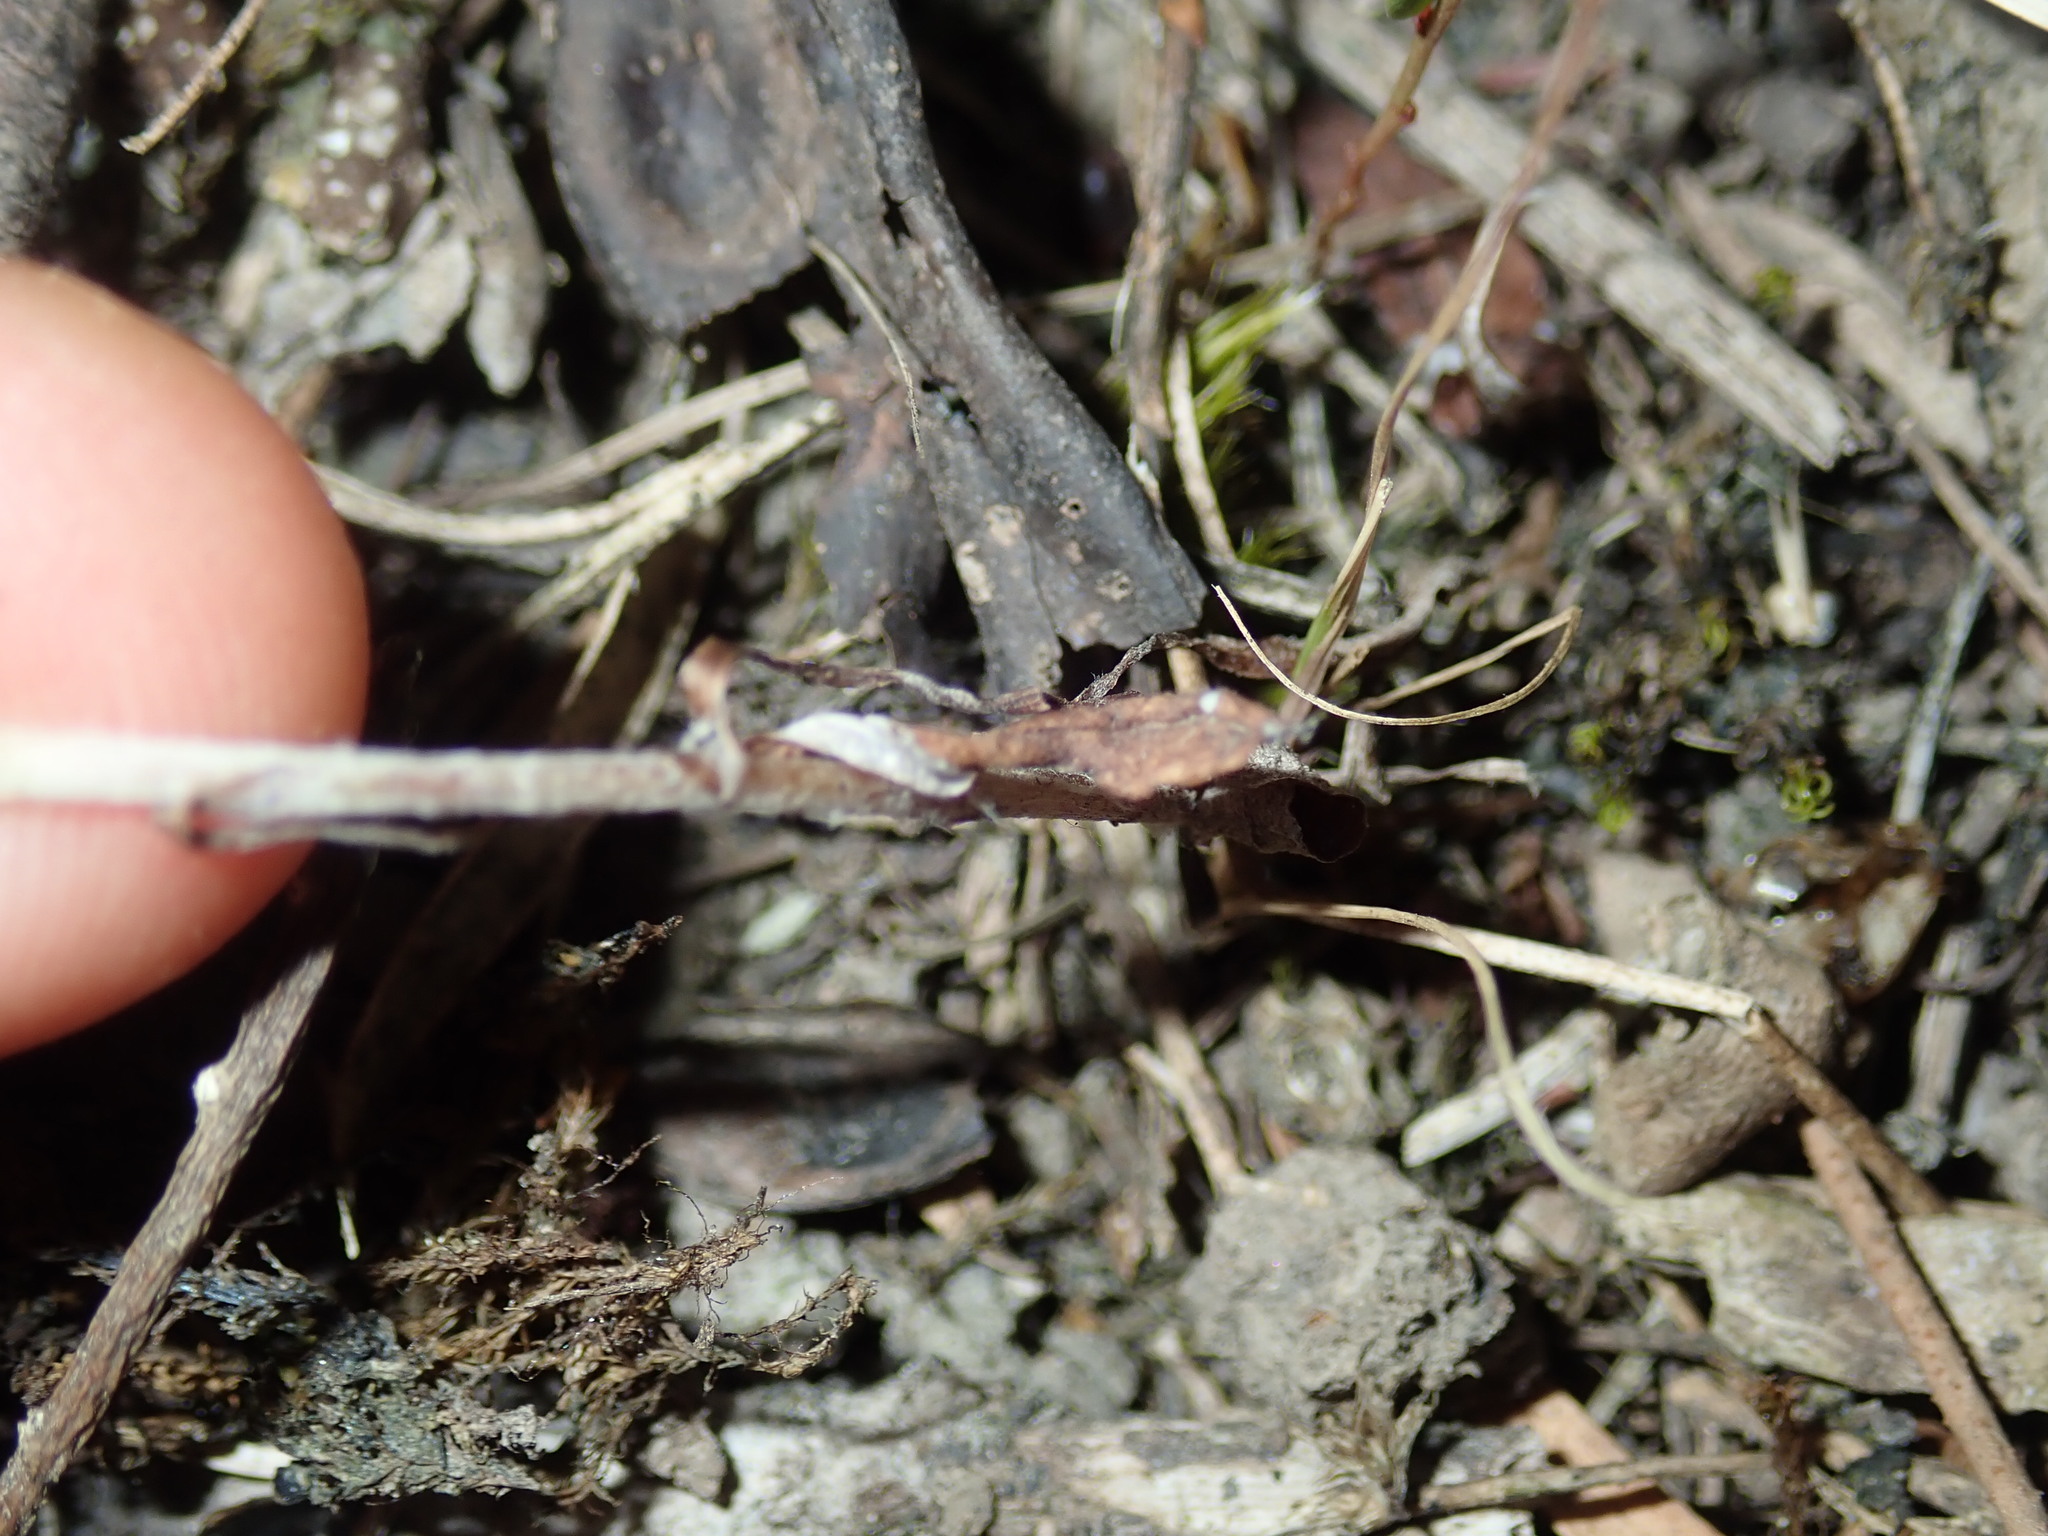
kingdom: Plantae
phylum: Tracheophyta
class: Magnoliopsida
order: Asterales
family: Asteraceae
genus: Euchiton
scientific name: Euchiton sphaericus
